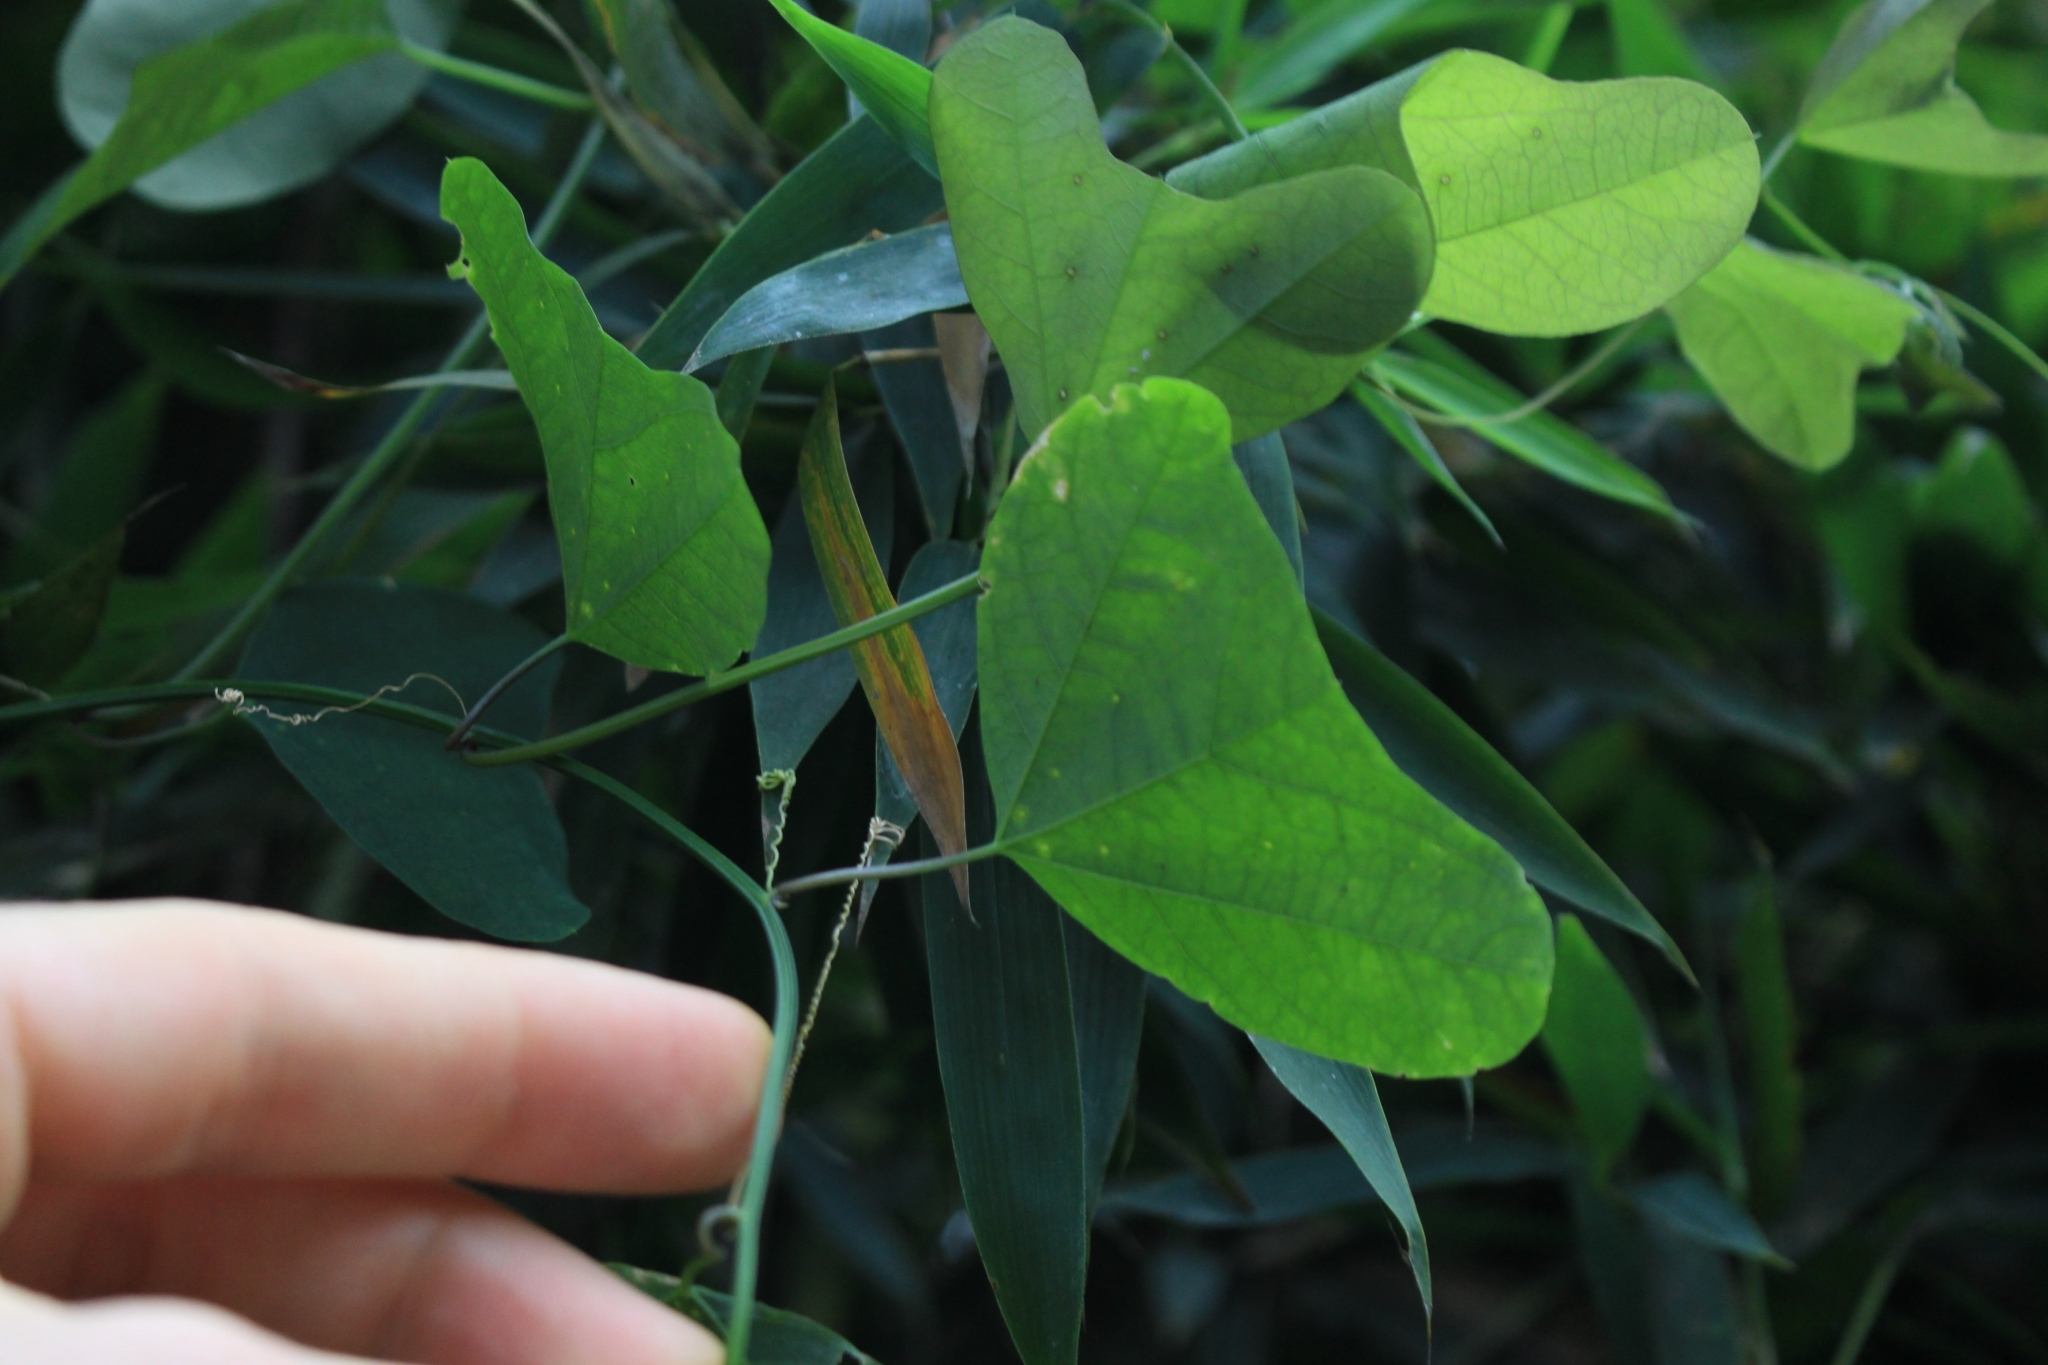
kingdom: Plantae
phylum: Tracheophyta
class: Magnoliopsida
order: Malpighiales
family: Passifloraceae
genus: Passiflora
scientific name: Passiflora biflora
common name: Twoflower passionflower
